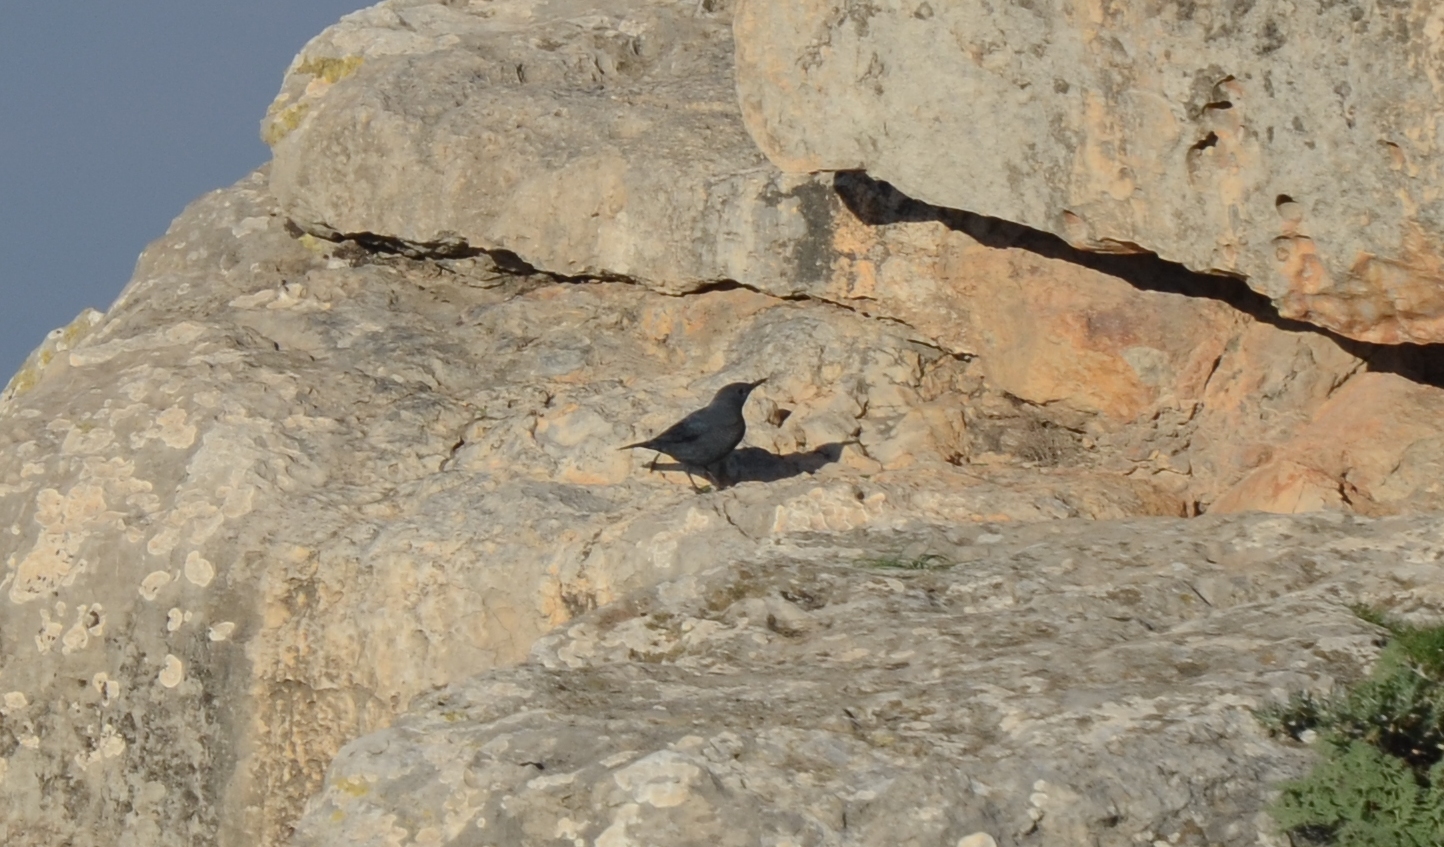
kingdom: Animalia
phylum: Chordata
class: Aves
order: Passeriformes
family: Muscicapidae
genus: Monticola
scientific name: Monticola solitarius
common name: Blue rock thrush
